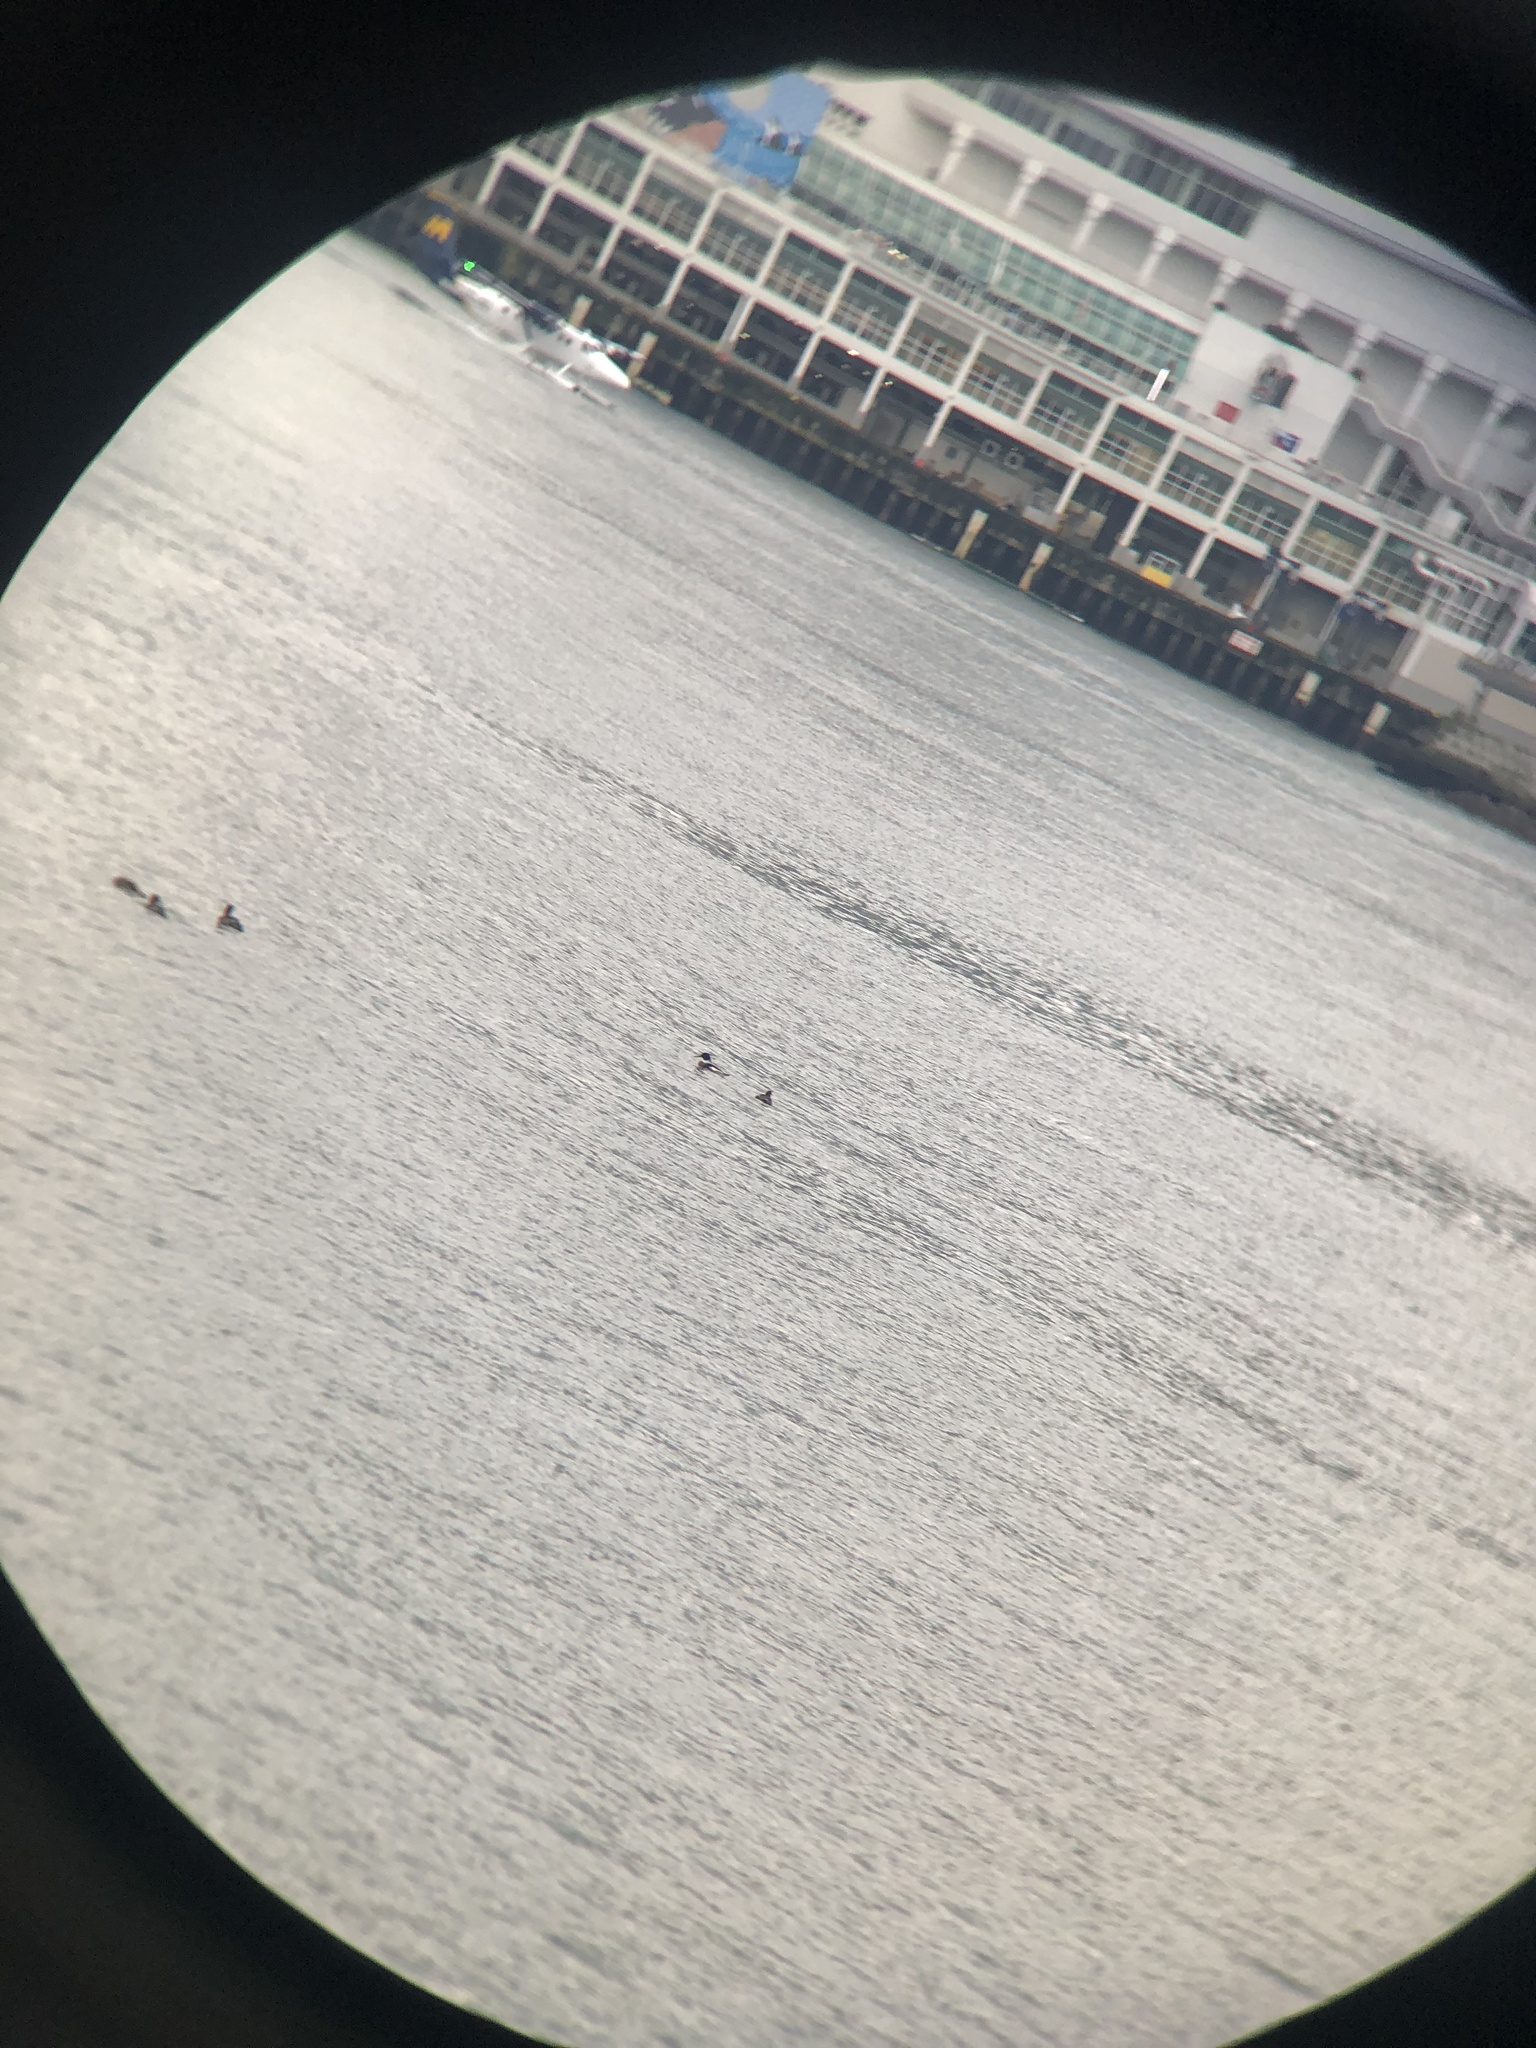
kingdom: Animalia
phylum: Chordata
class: Aves
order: Anseriformes
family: Anatidae
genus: Mergus
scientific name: Mergus serrator
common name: Red-breasted merganser
